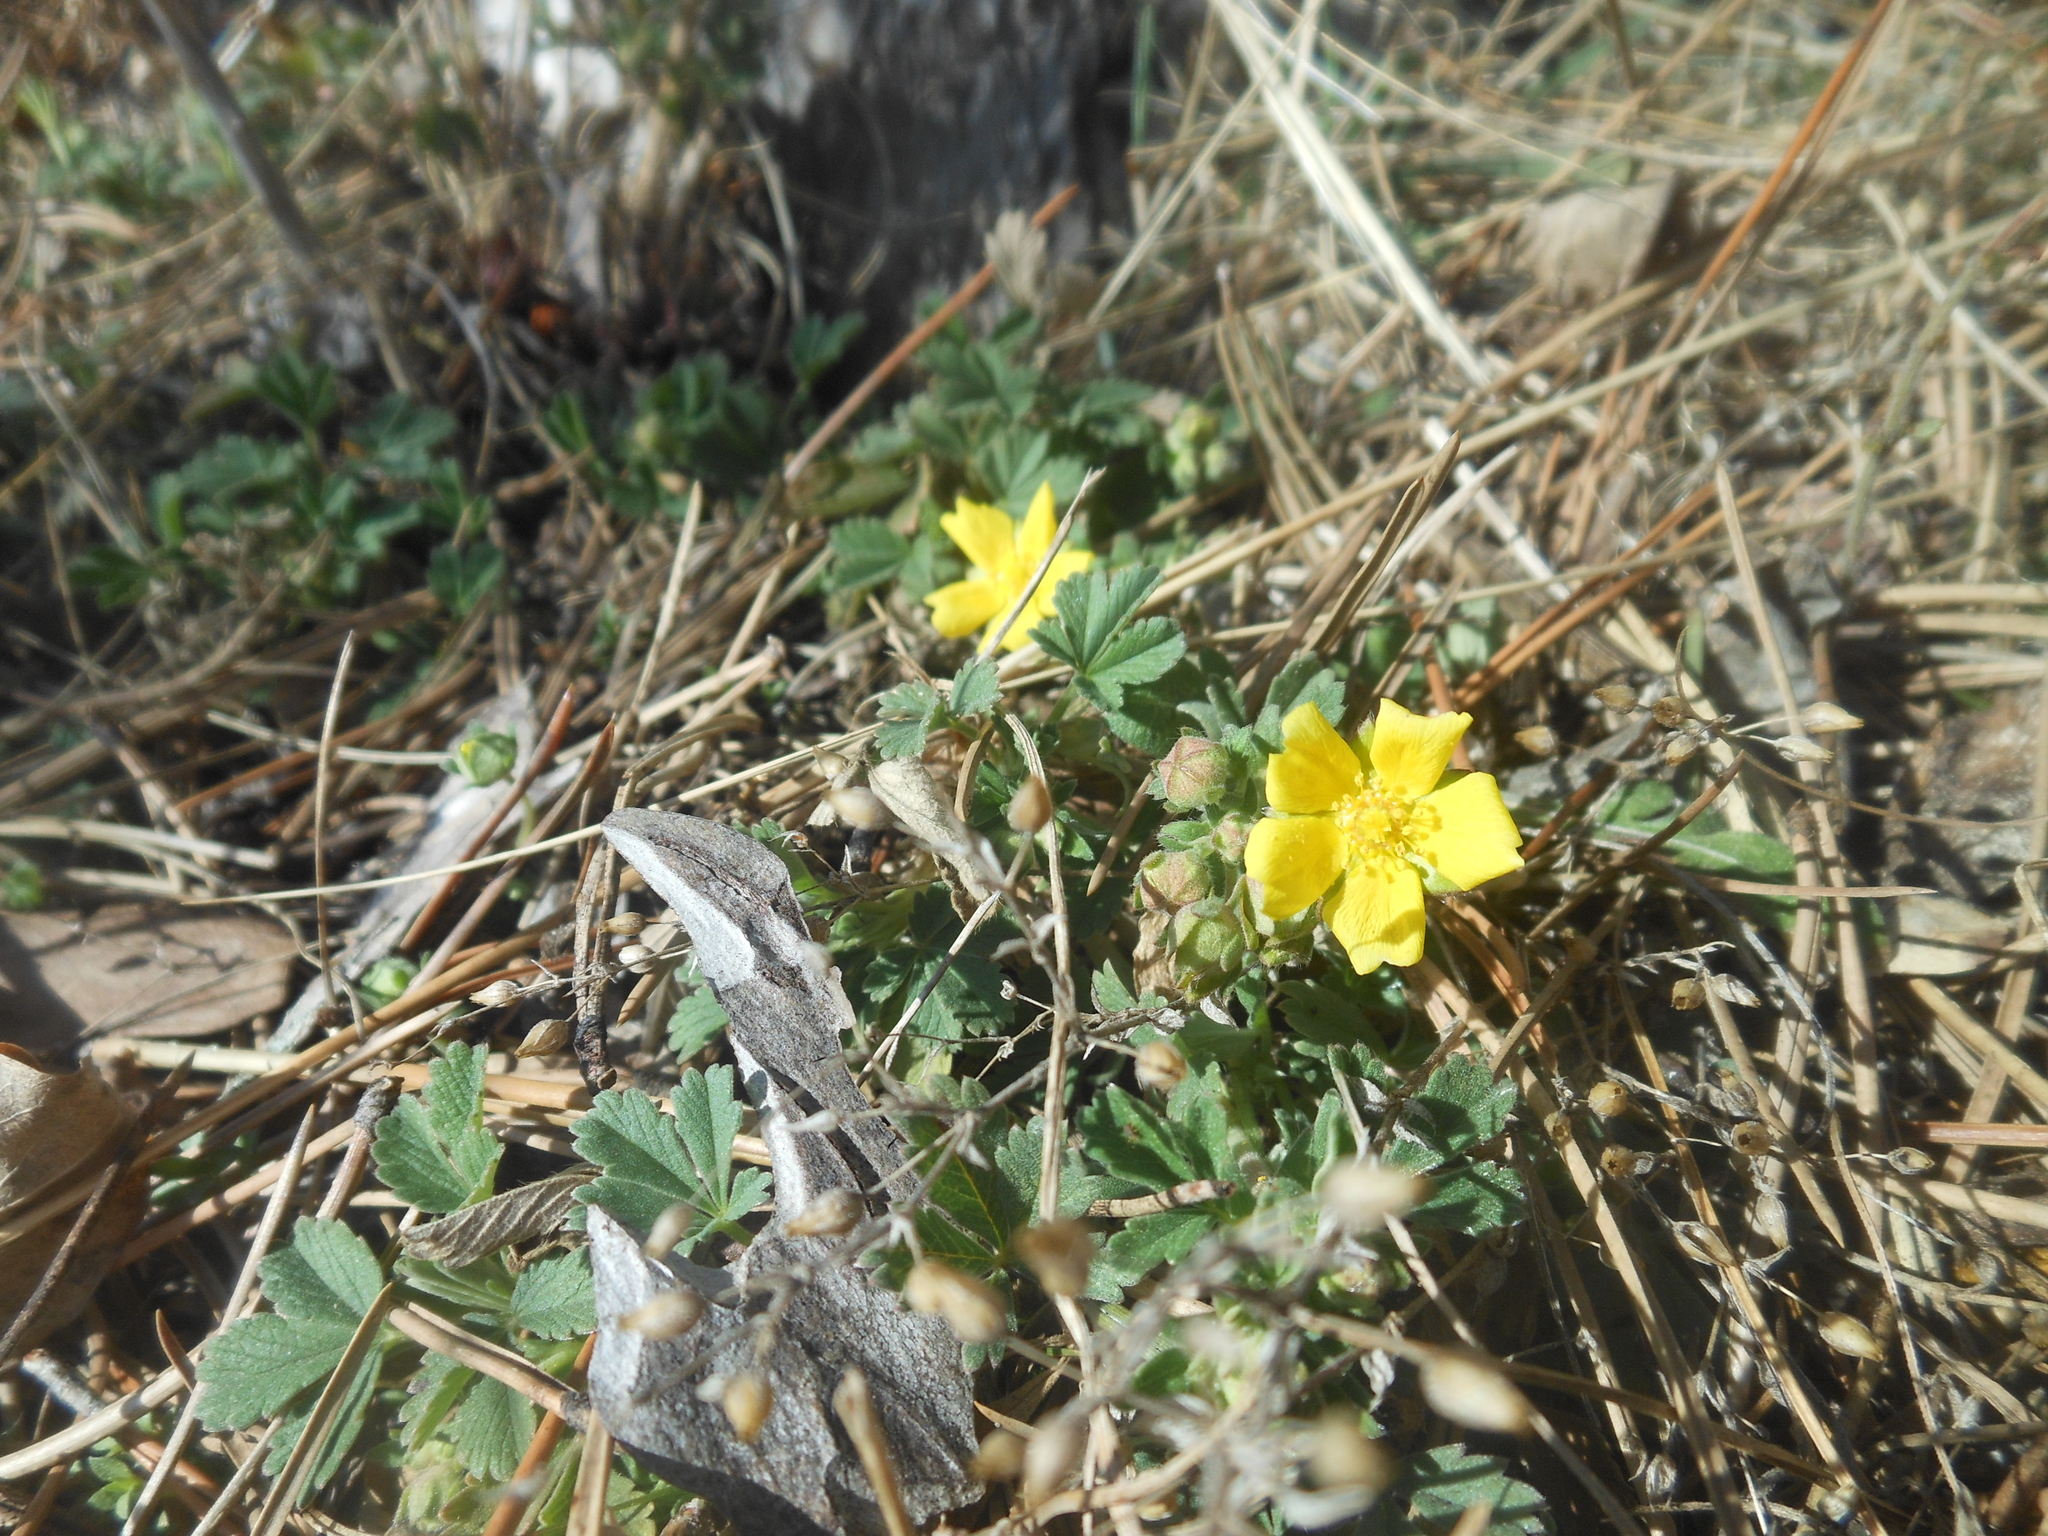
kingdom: Plantae
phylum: Tracheophyta
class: Magnoliopsida
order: Rosales
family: Rosaceae
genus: Potentilla
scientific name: Potentilla incana
